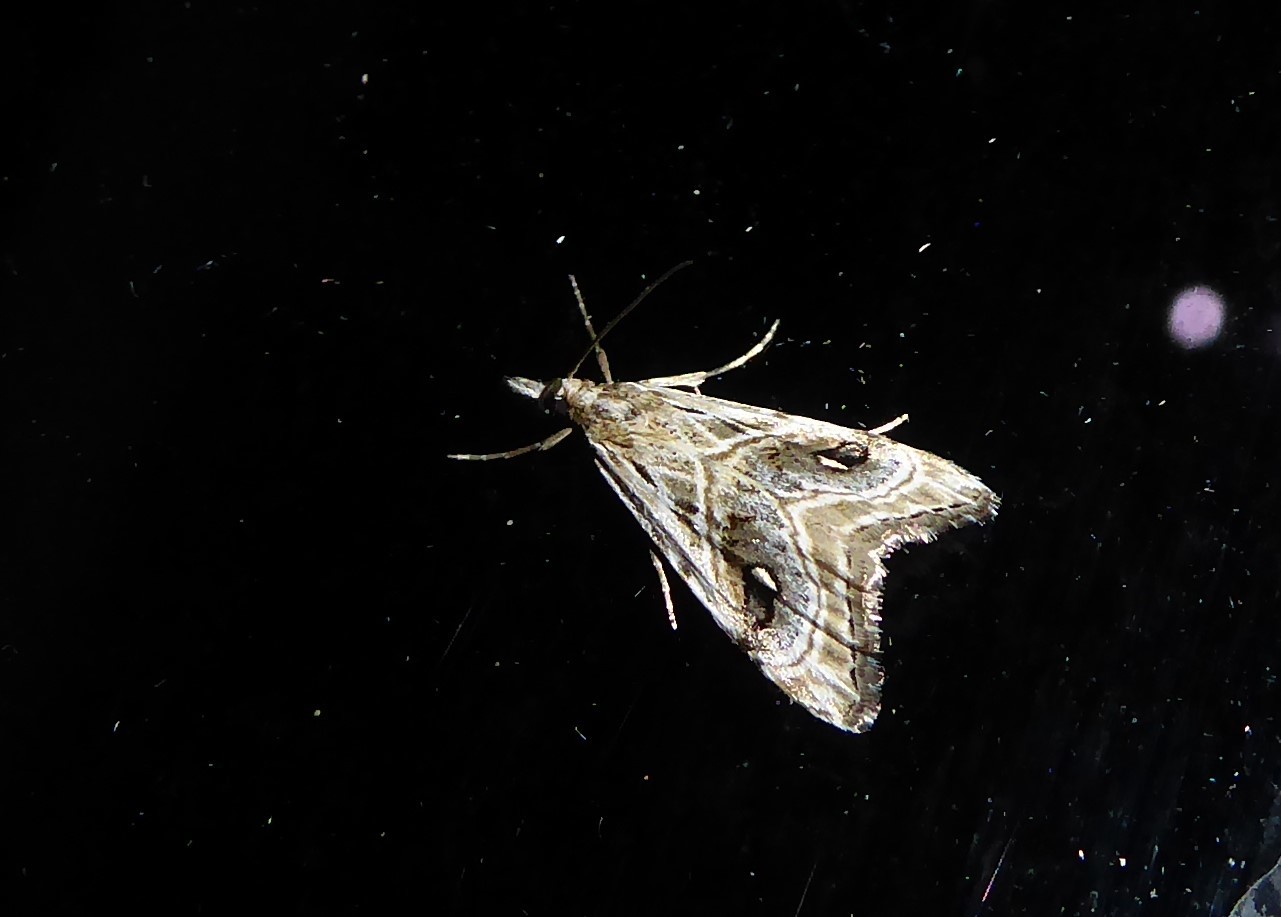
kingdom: Animalia
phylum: Arthropoda
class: Insecta
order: Lepidoptera
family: Crambidae
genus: Gadira
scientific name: Gadira acerella
